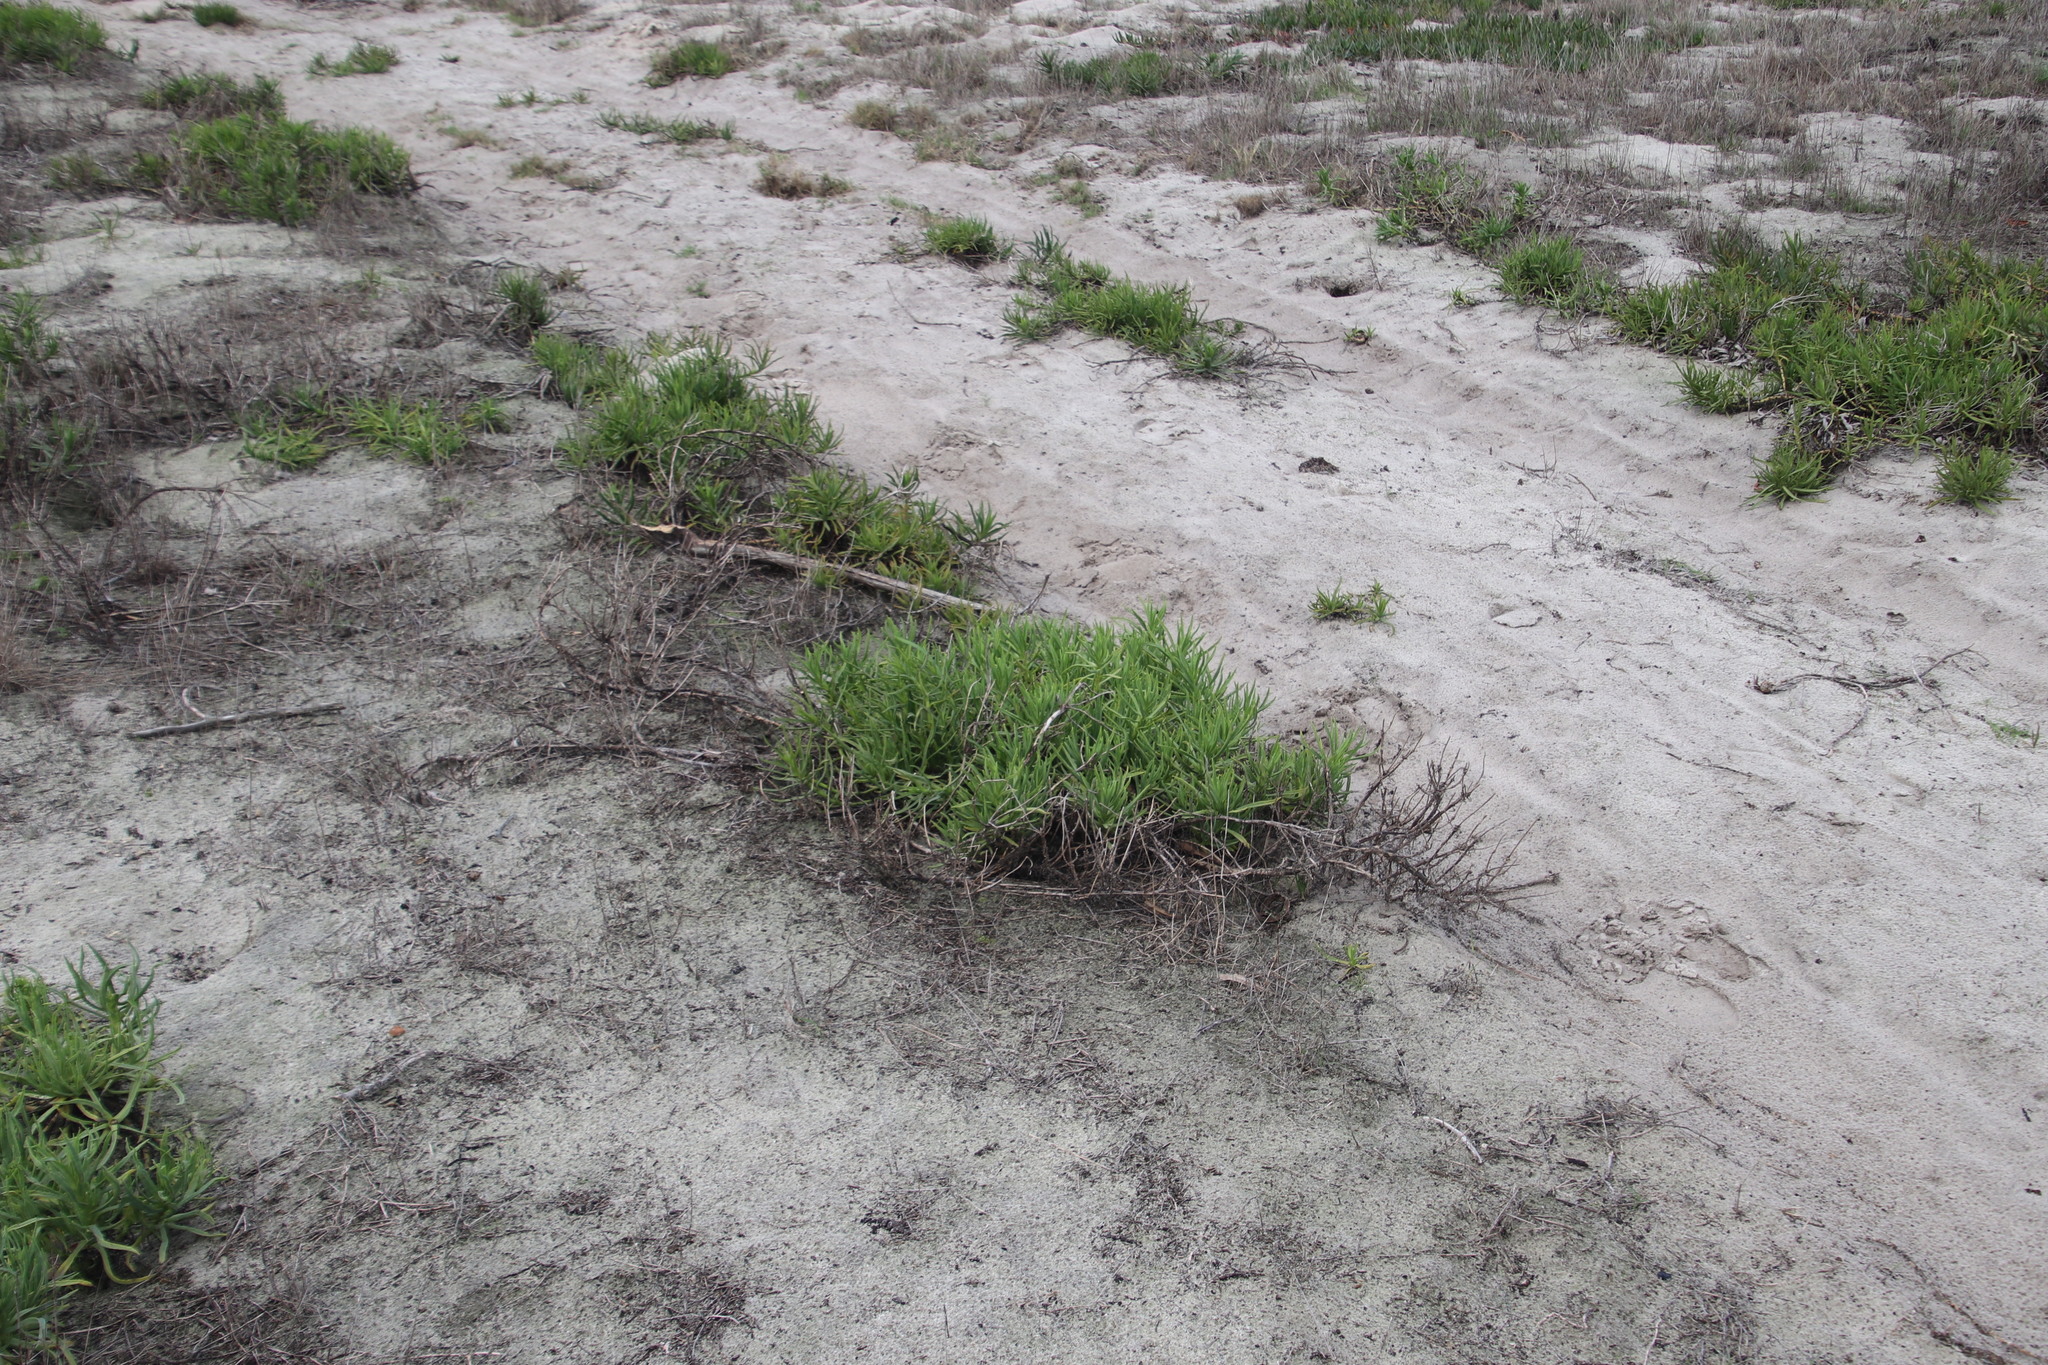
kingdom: Plantae
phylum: Tracheophyta
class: Magnoliopsida
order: Caryophyllales
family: Aizoaceae
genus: Conicosia
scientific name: Conicosia pugioniformis
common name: Narrow-leaved iceplant
